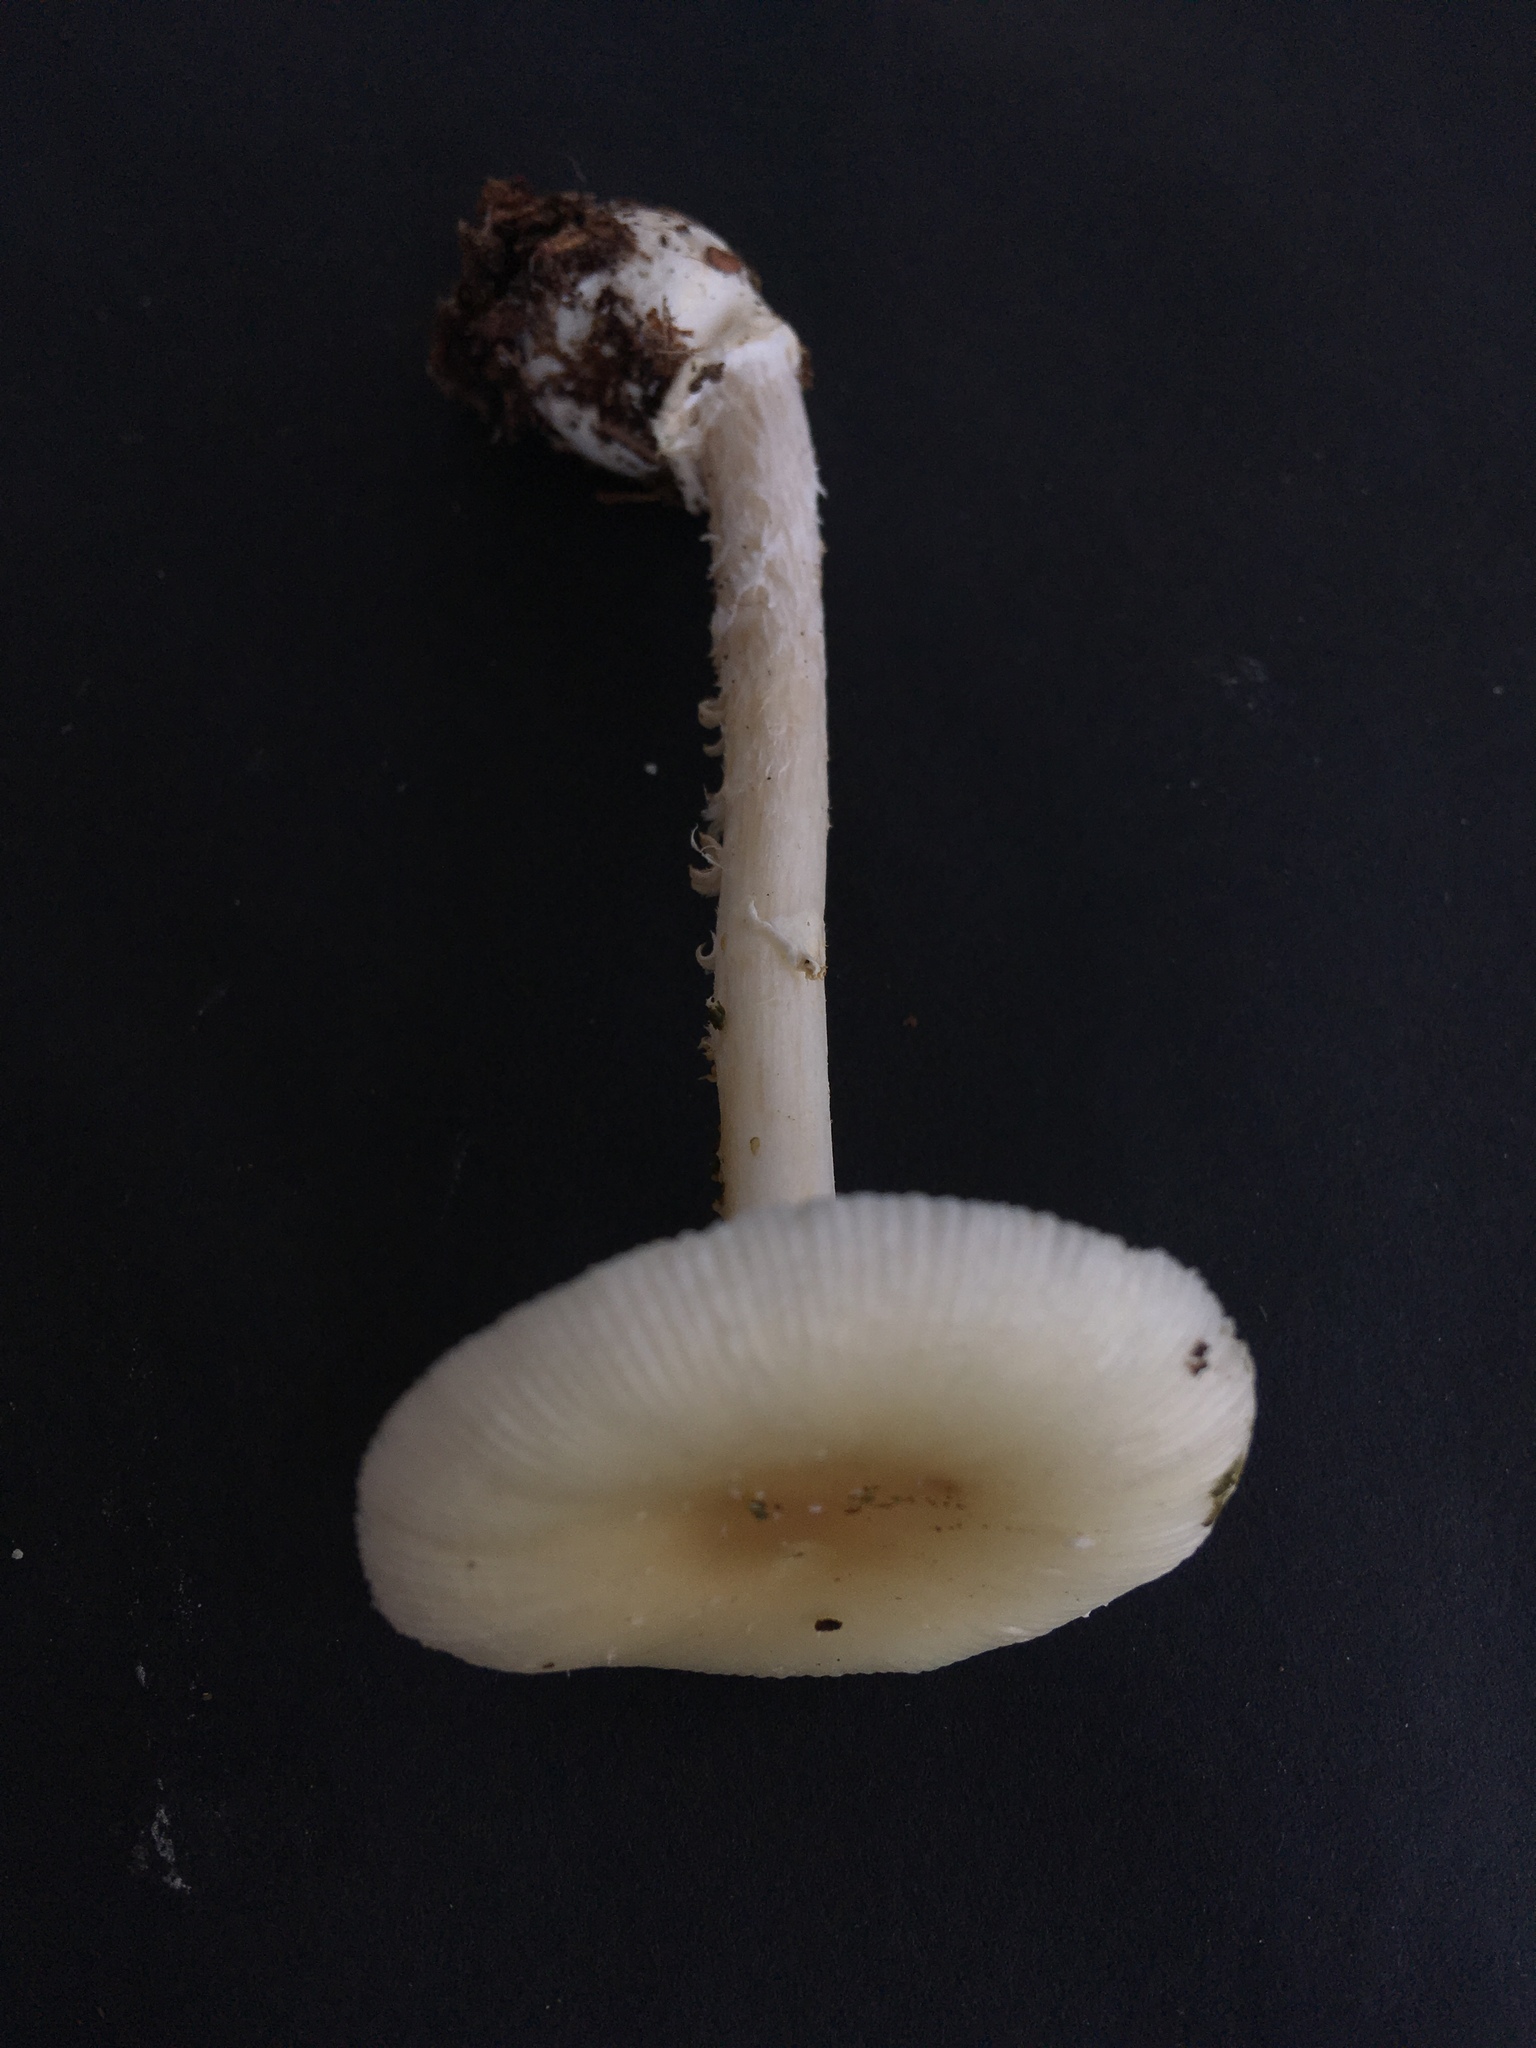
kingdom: Fungi
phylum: Basidiomycota
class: Agaricomycetes
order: Agaricales
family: Amanitaceae
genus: Amanita
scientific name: Amanita albocreata
